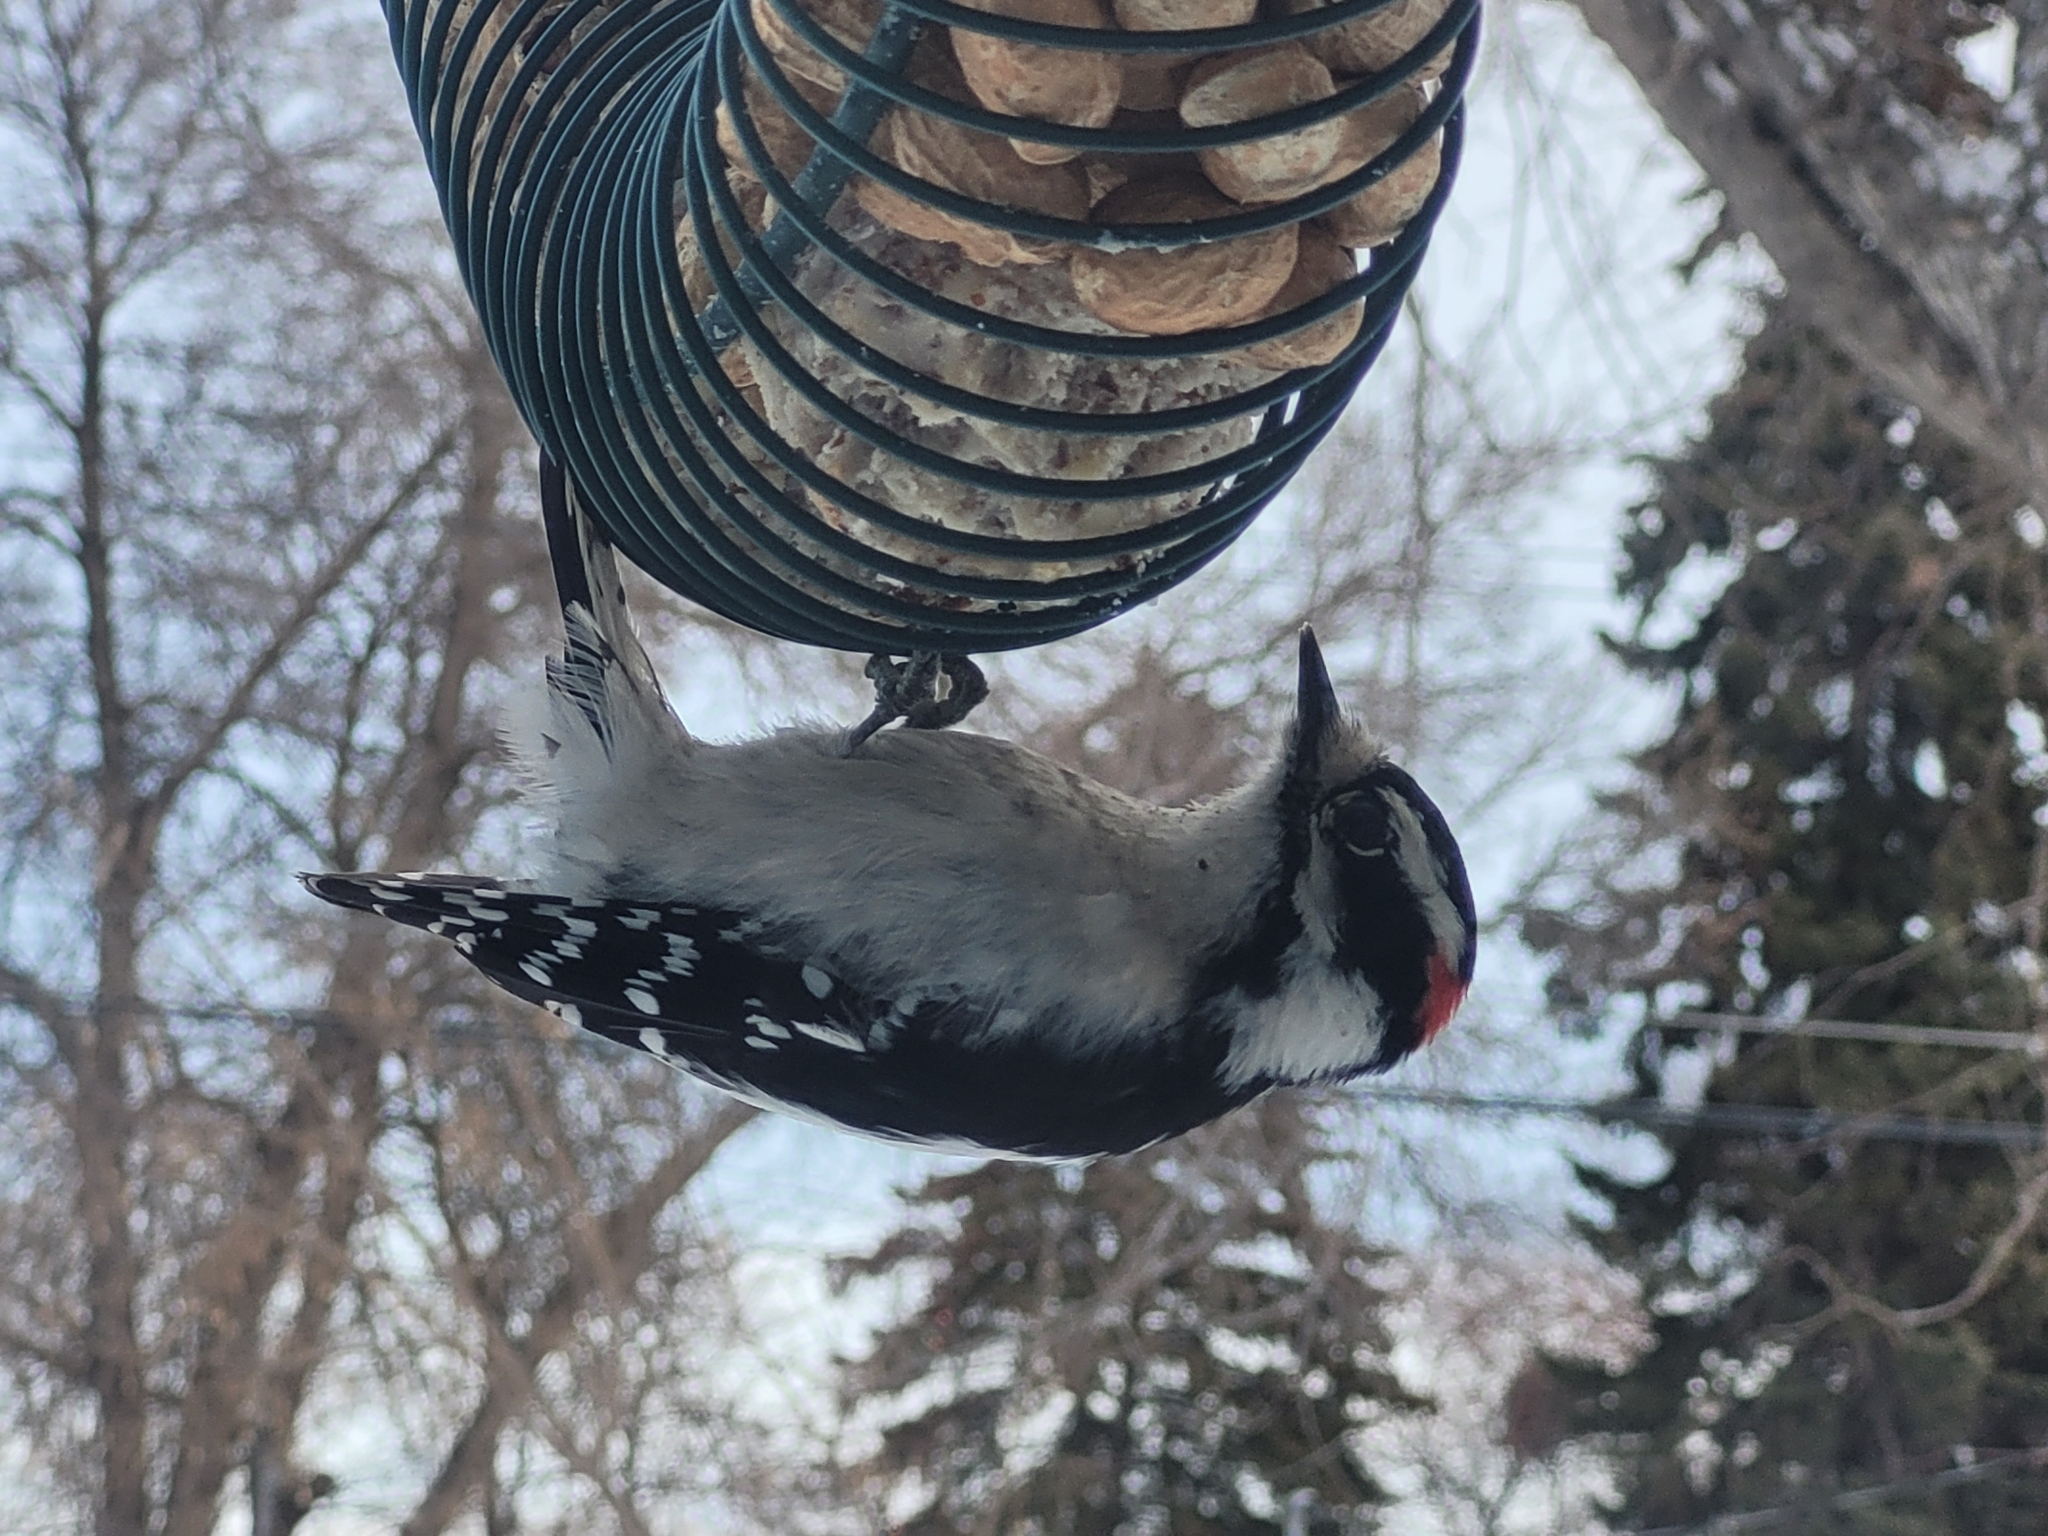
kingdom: Animalia
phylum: Chordata
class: Aves
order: Piciformes
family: Picidae
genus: Dryobates
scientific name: Dryobates pubescens
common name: Downy woodpecker
